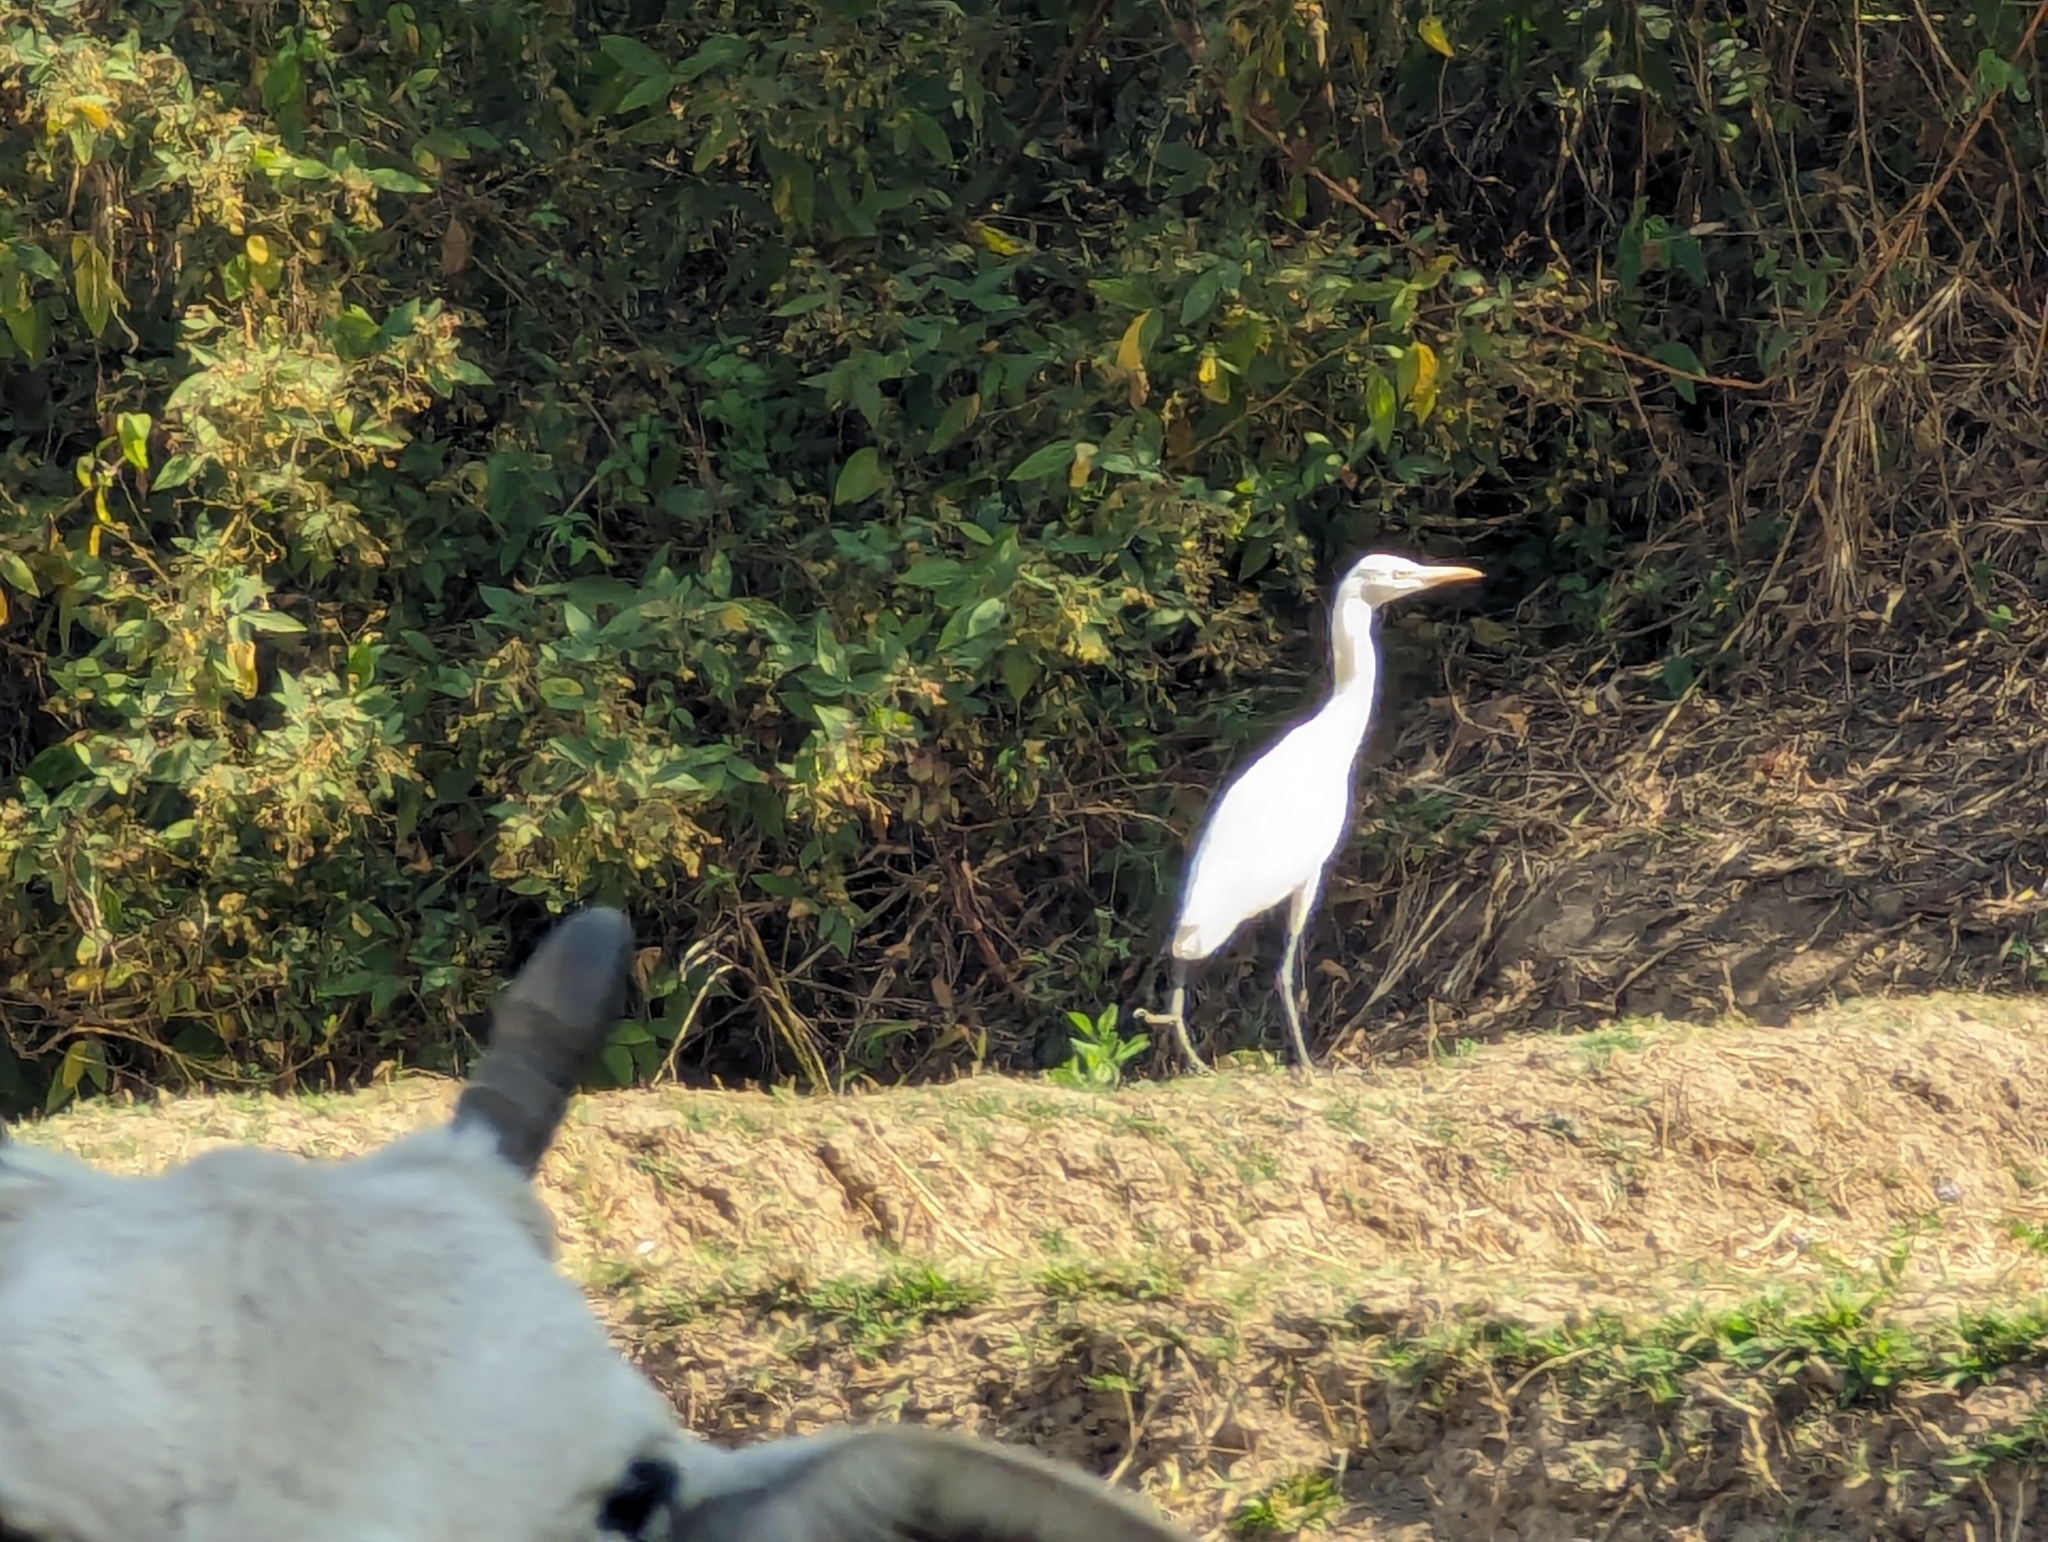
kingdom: Animalia
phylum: Chordata
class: Aves
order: Pelecaniformes
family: Ardeidae
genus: Bubulcus
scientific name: Bubulcus coromandus
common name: Eastern cattle egret
